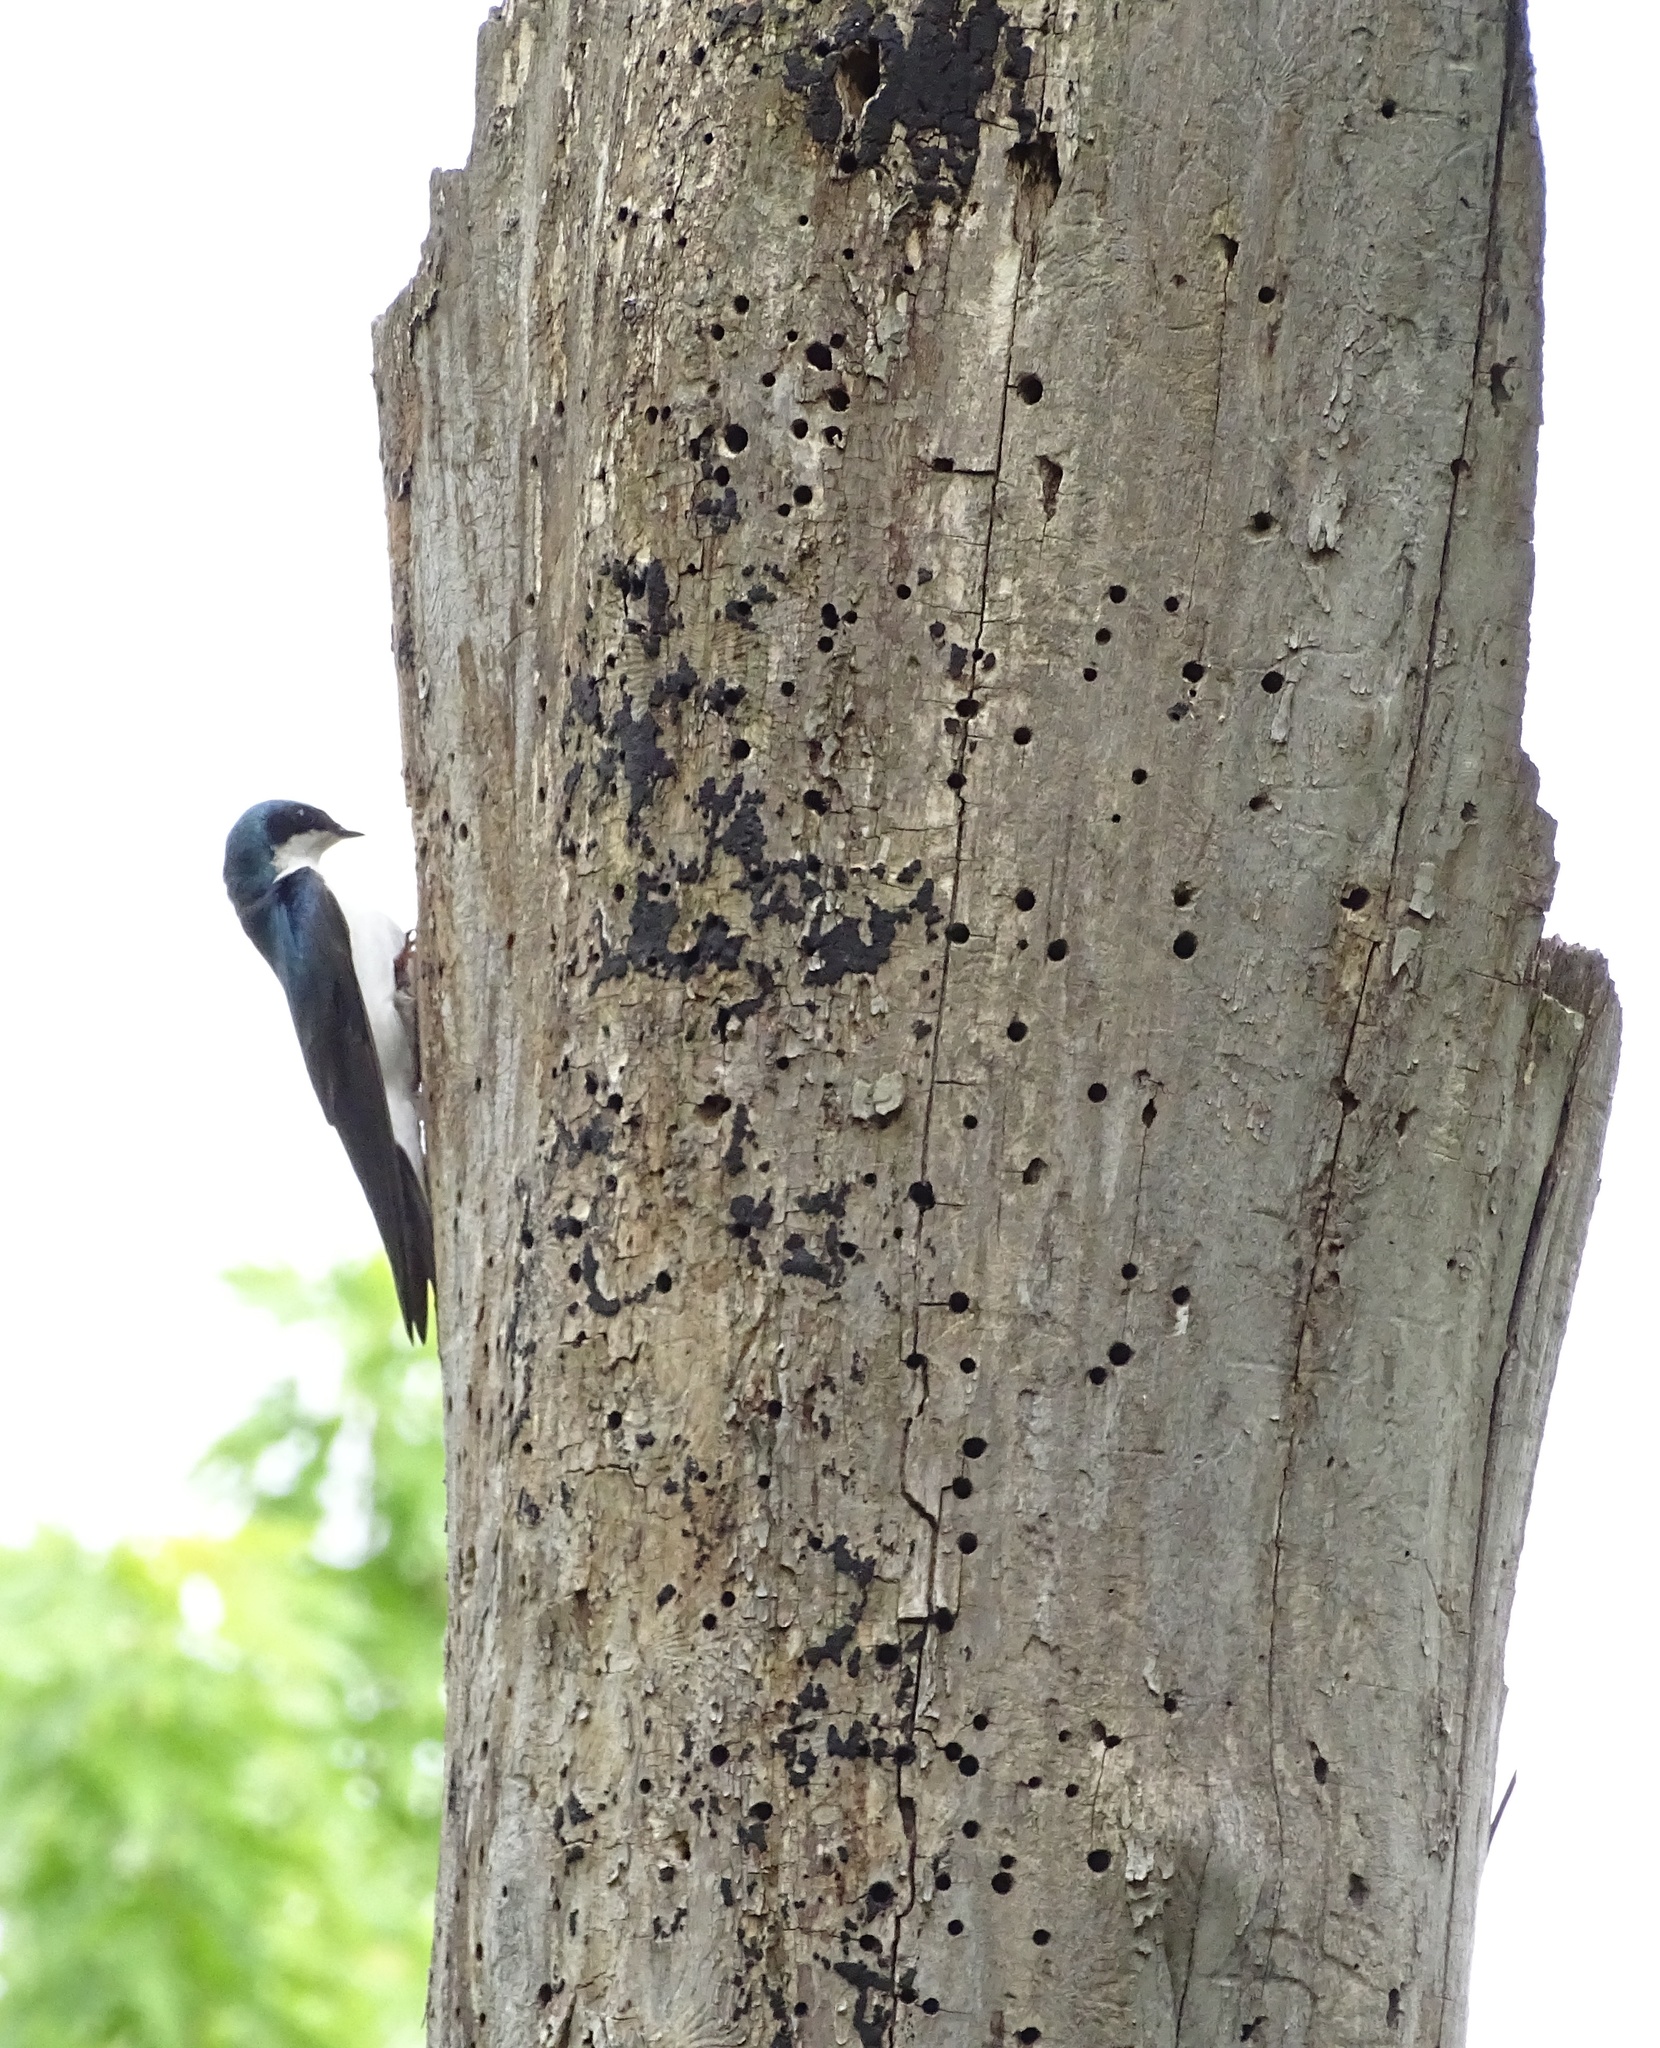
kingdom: Animalia
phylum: Chordata
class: Aves
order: Passeriformes
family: Hirundinidae
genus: Tachycineta
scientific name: Tachycineta bicolor
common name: Tree swallow
